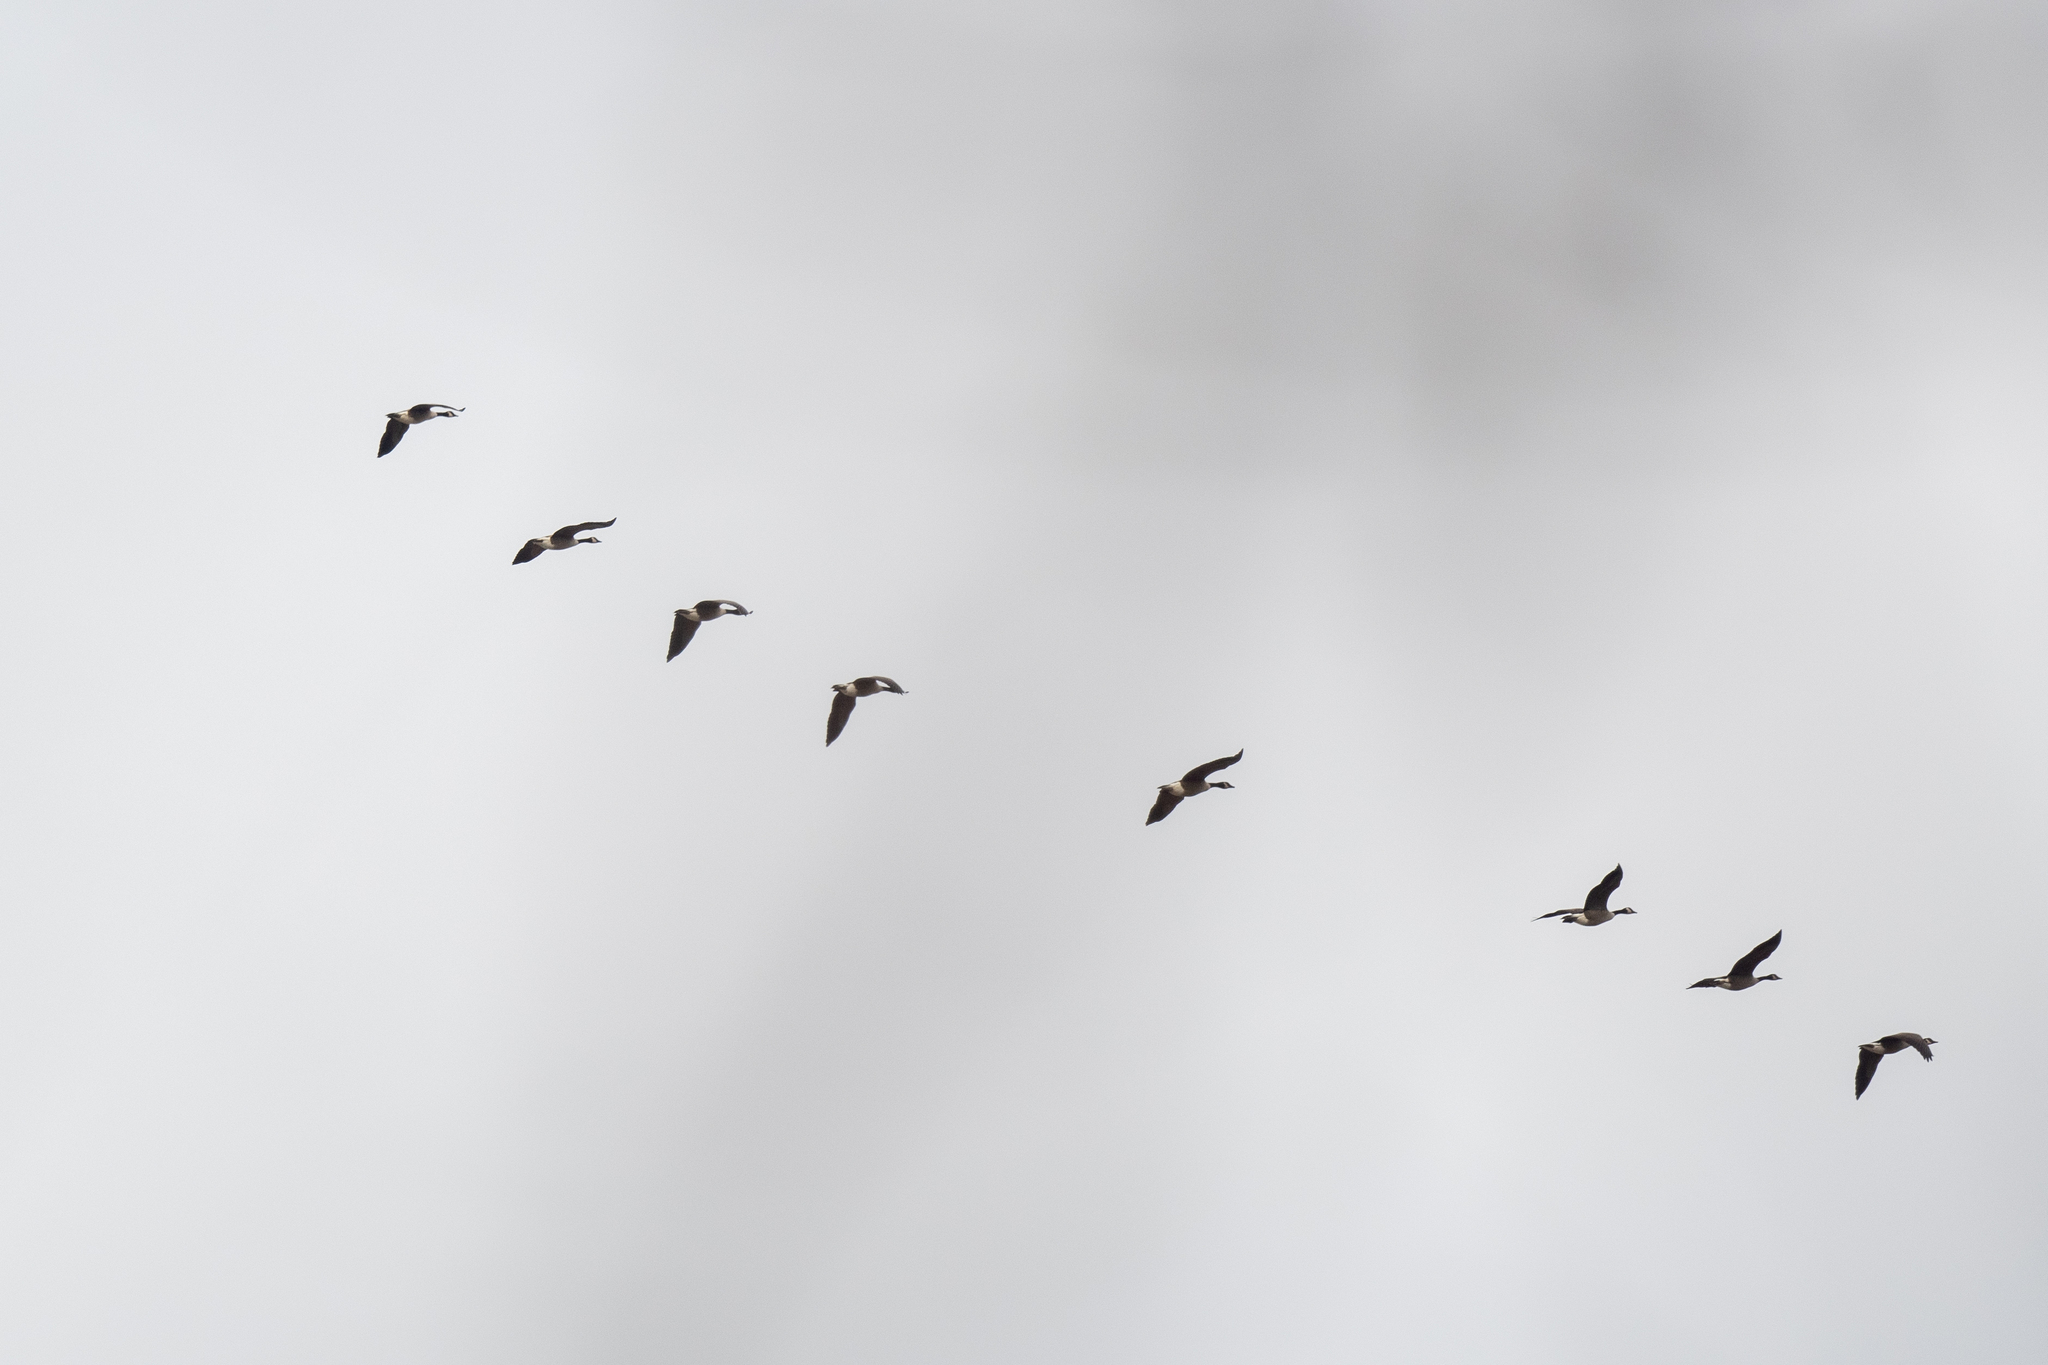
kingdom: Animalia
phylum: Chordata
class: Aves
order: Anseriformes
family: Anatidae
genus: Branta
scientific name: Branta canadensis
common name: Canada goose
